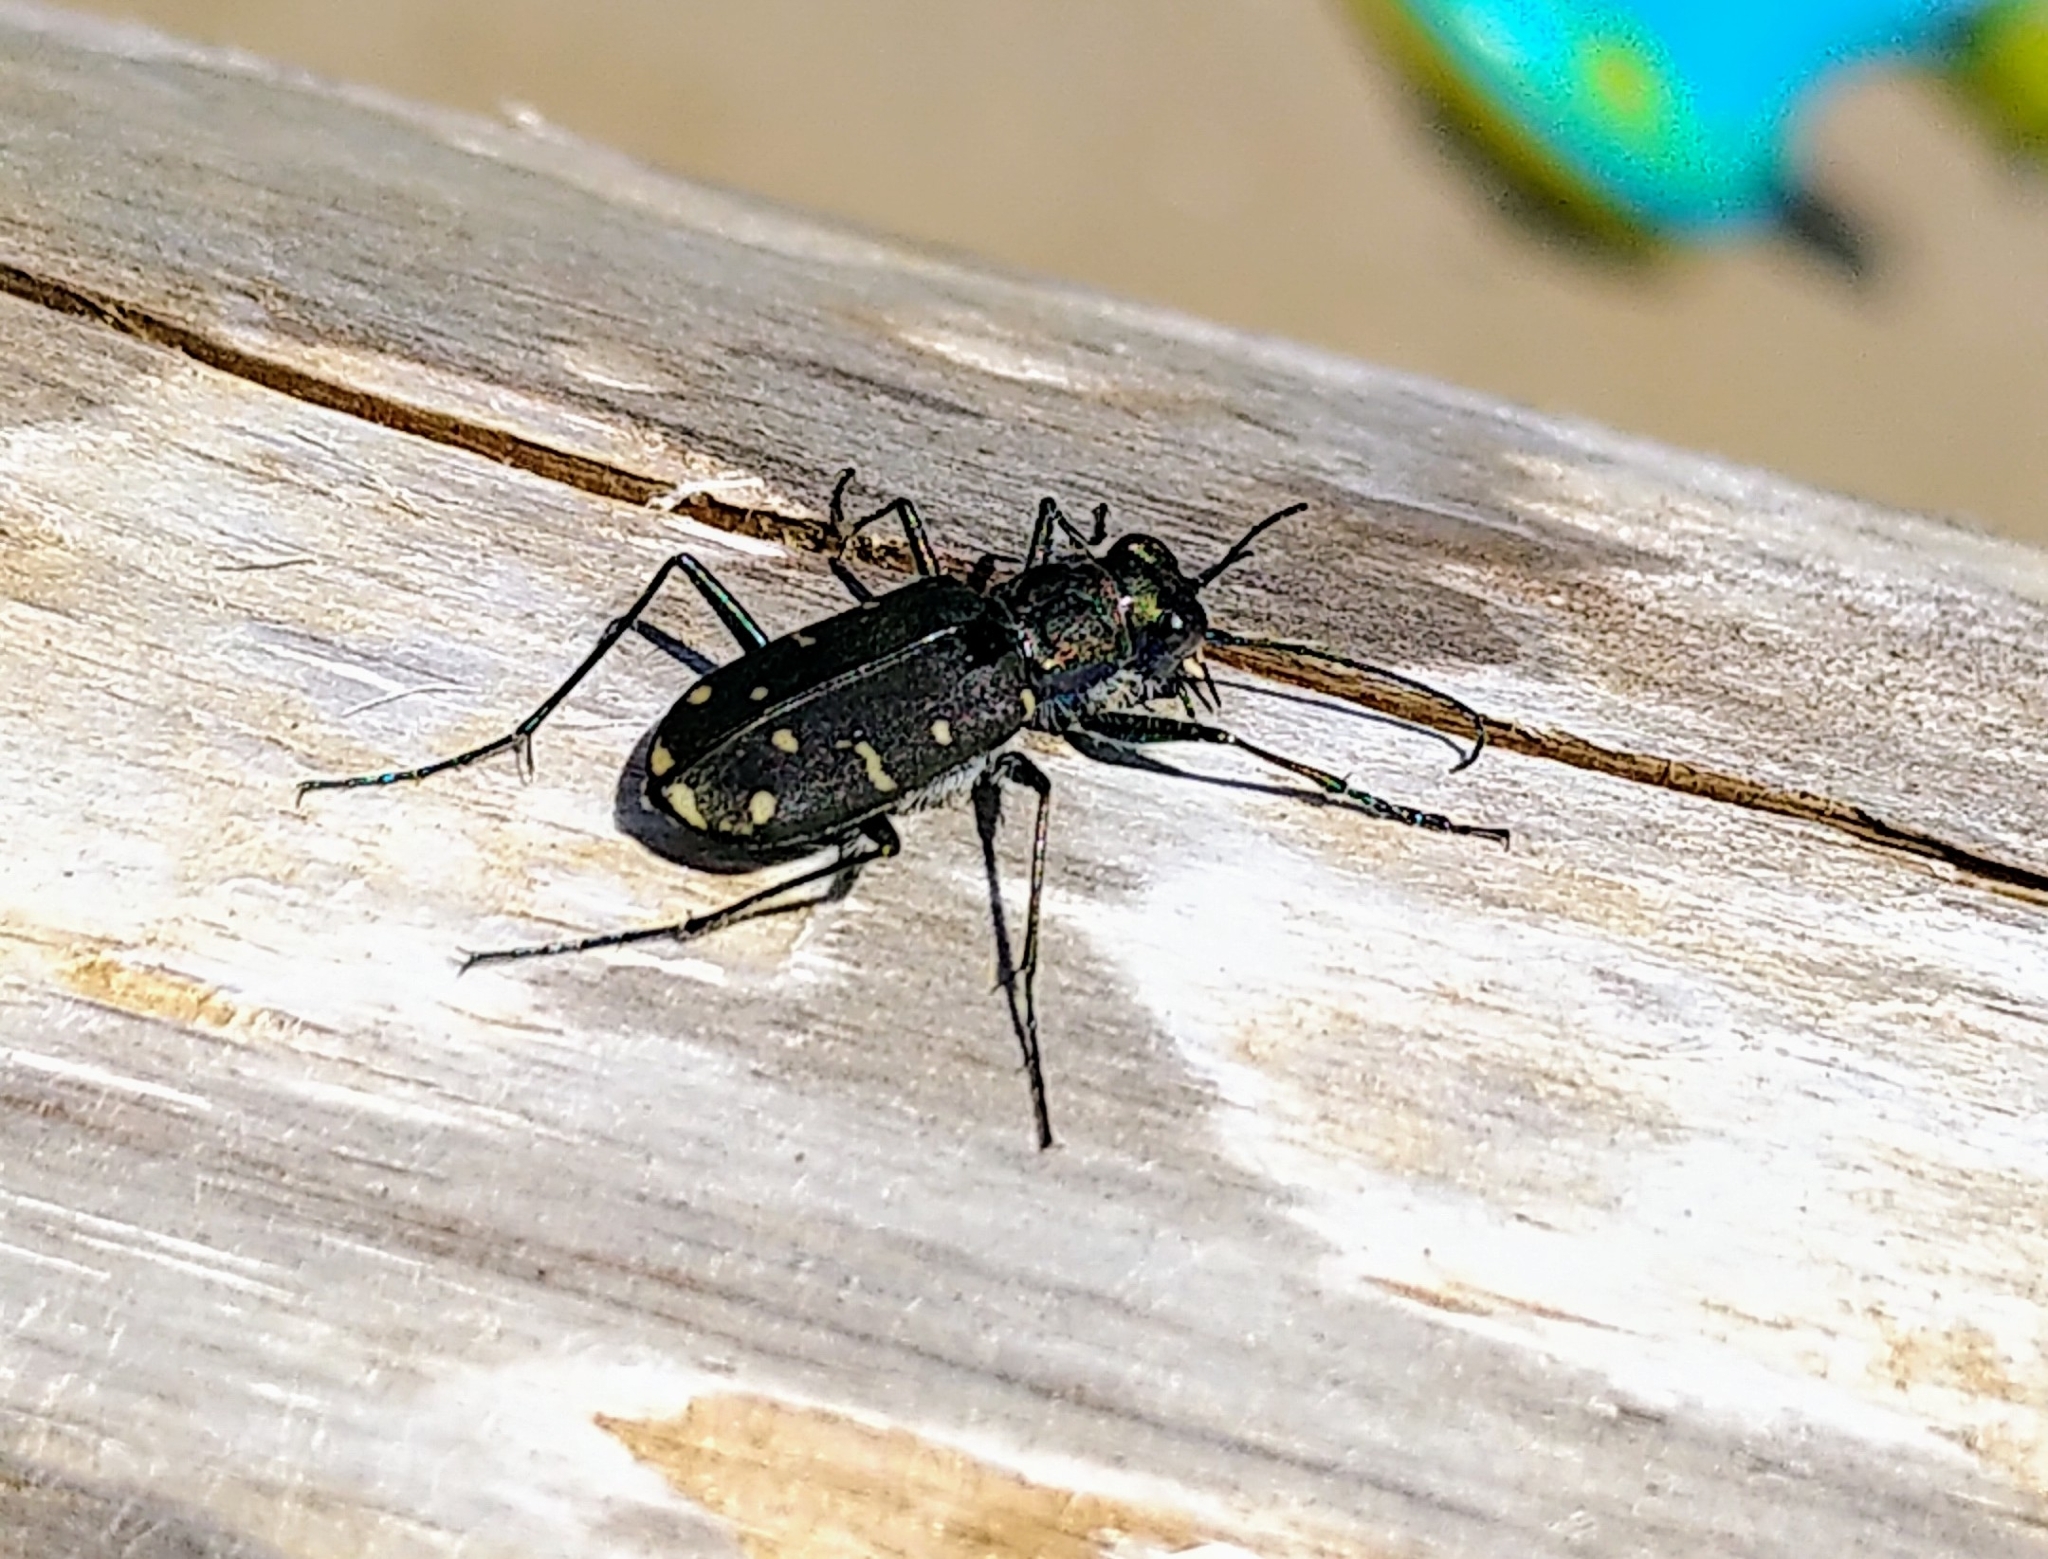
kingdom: Animalia
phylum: Arthropoda
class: Insecta
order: Coleoptera
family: Carabidae
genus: Cicindela
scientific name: Cicindela oregona
